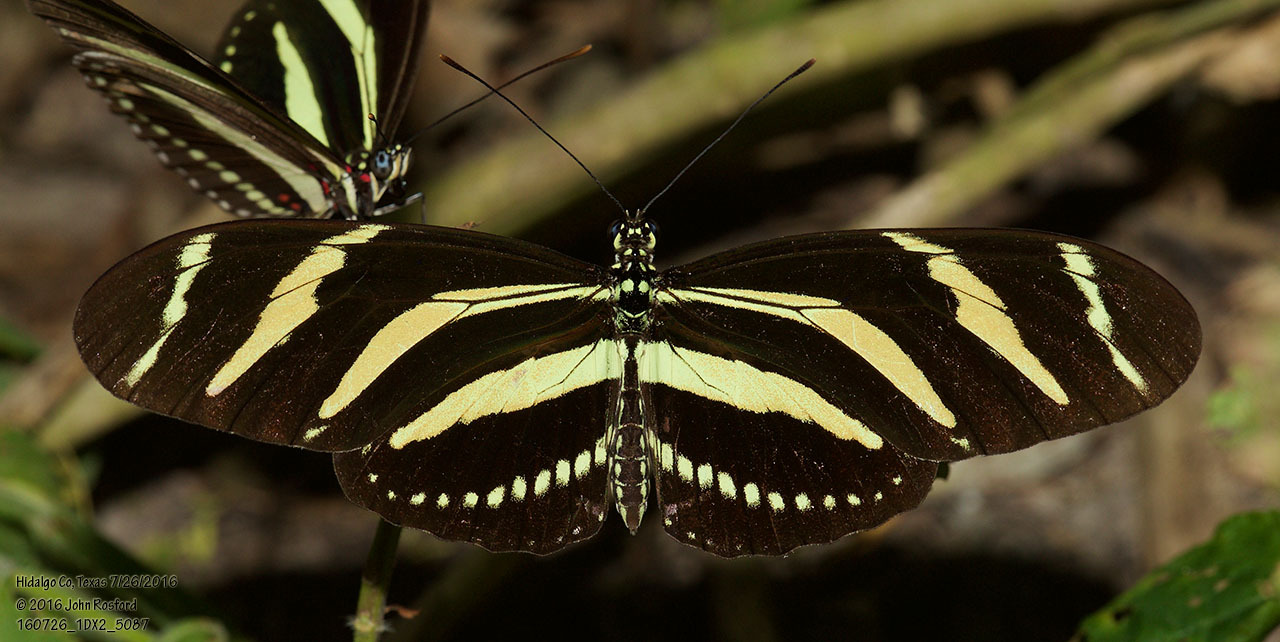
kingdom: Animalia
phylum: Arthropoda
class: Insecta
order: Lepidoptera
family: Nymphalidae
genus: Heliconius
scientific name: Heliconius charithonia
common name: Zebra long wing
